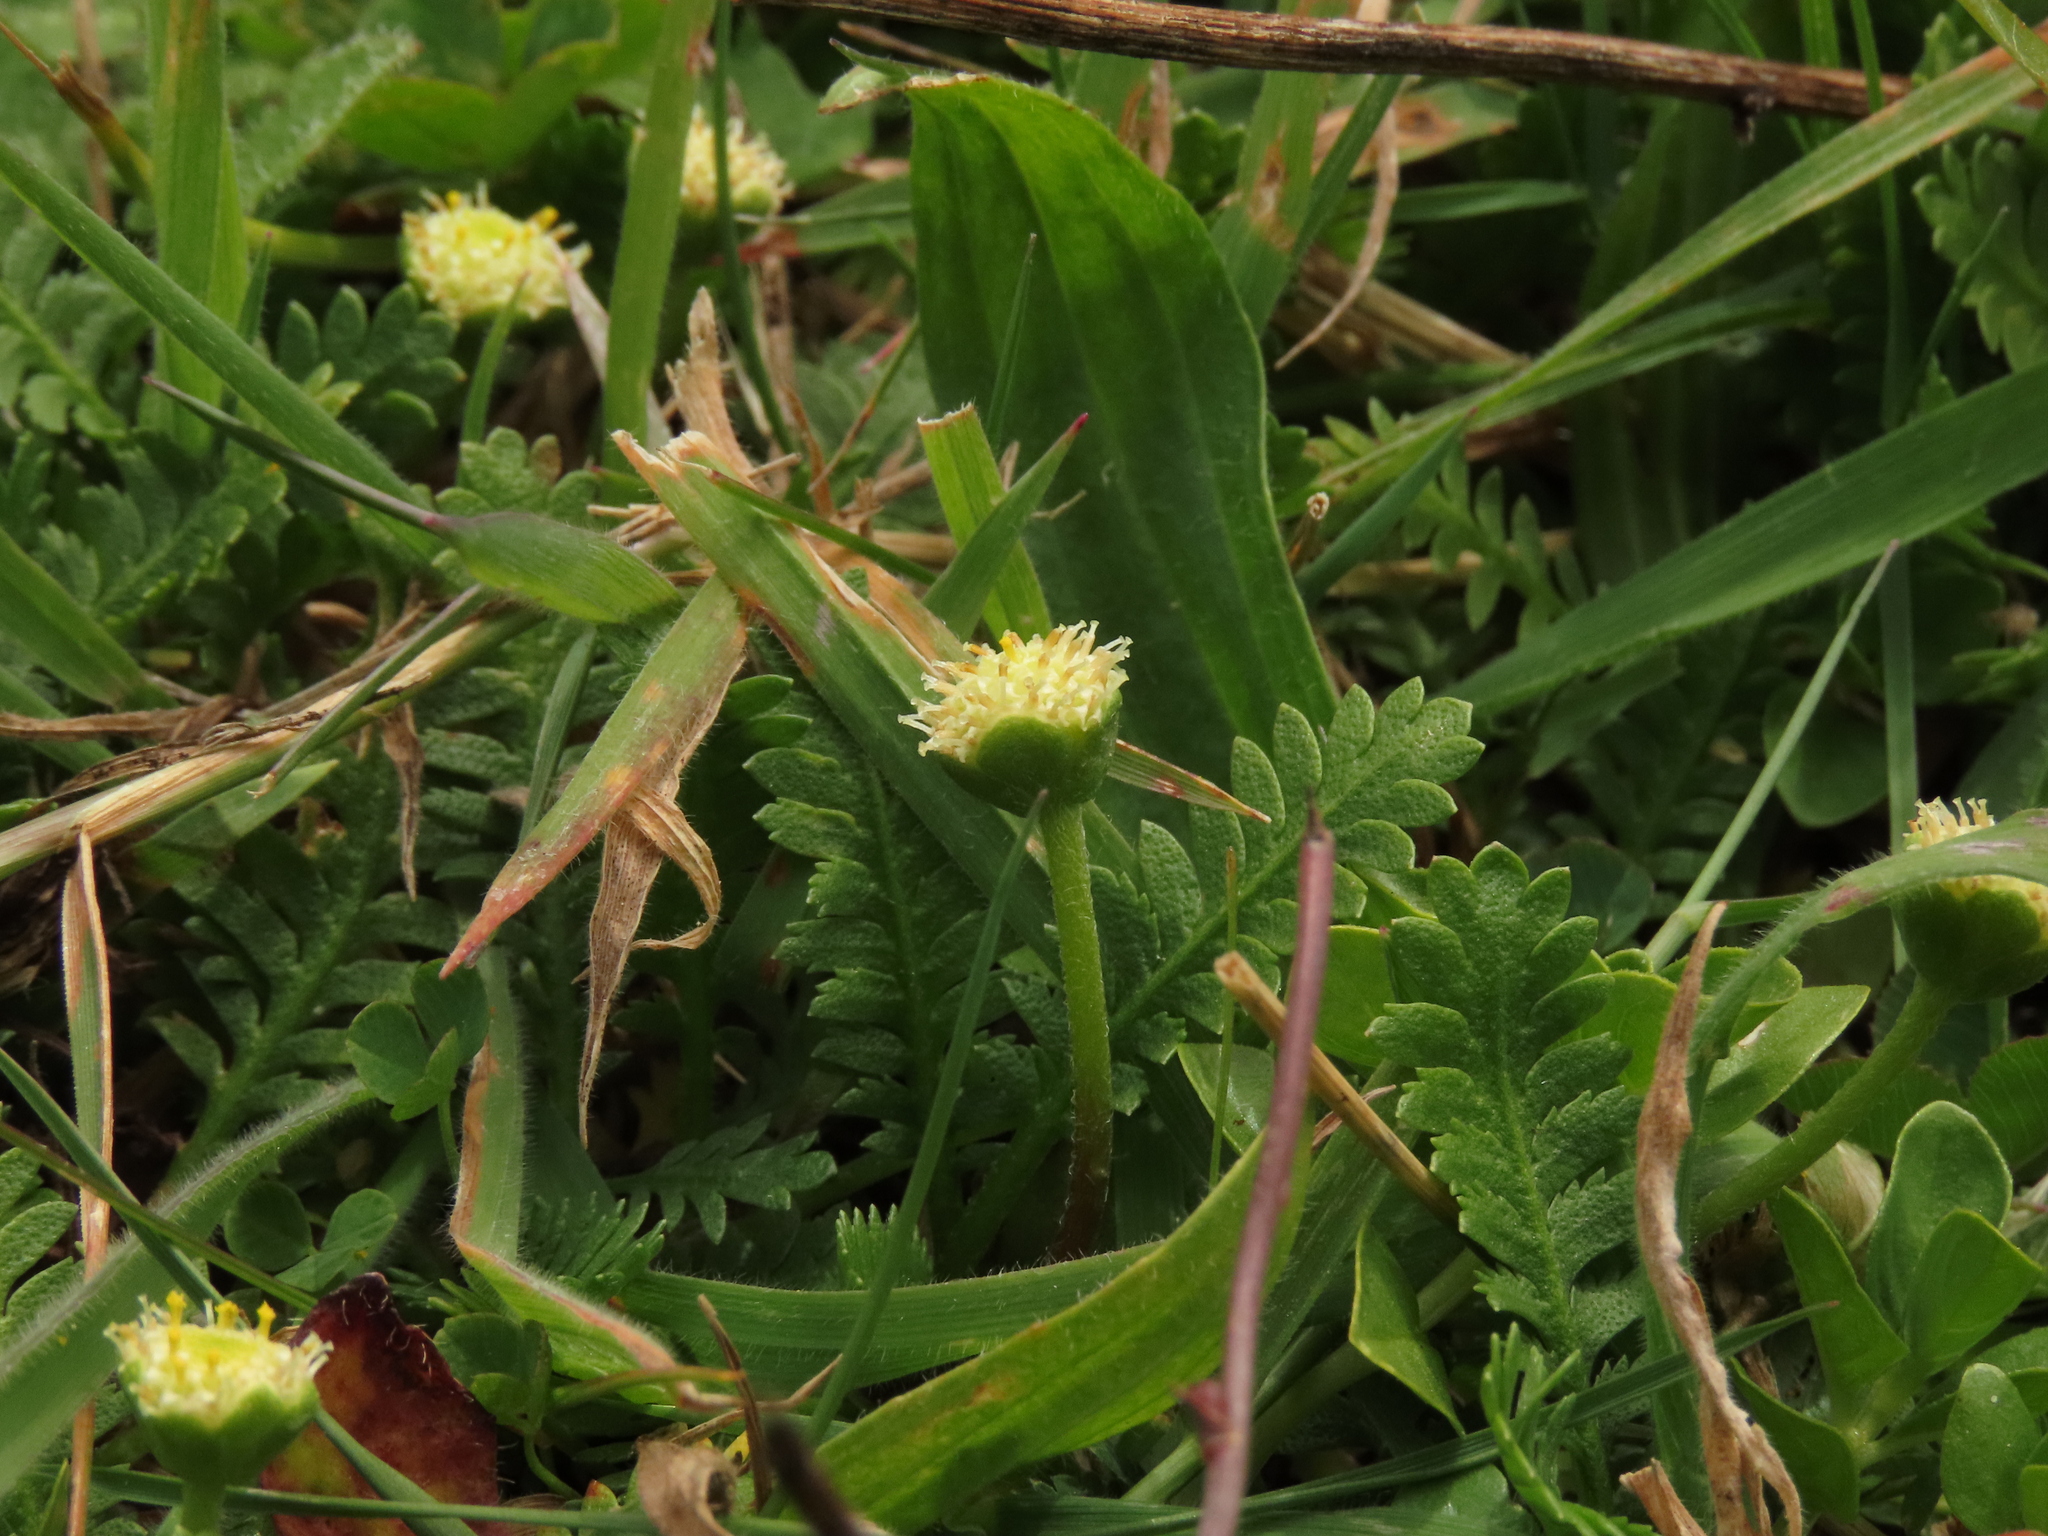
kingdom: Plantae
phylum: Tracheophyta
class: Magnoliopsida
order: Asterales
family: Asteraceae
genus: Leptinella
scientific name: Leptinella scariosa
